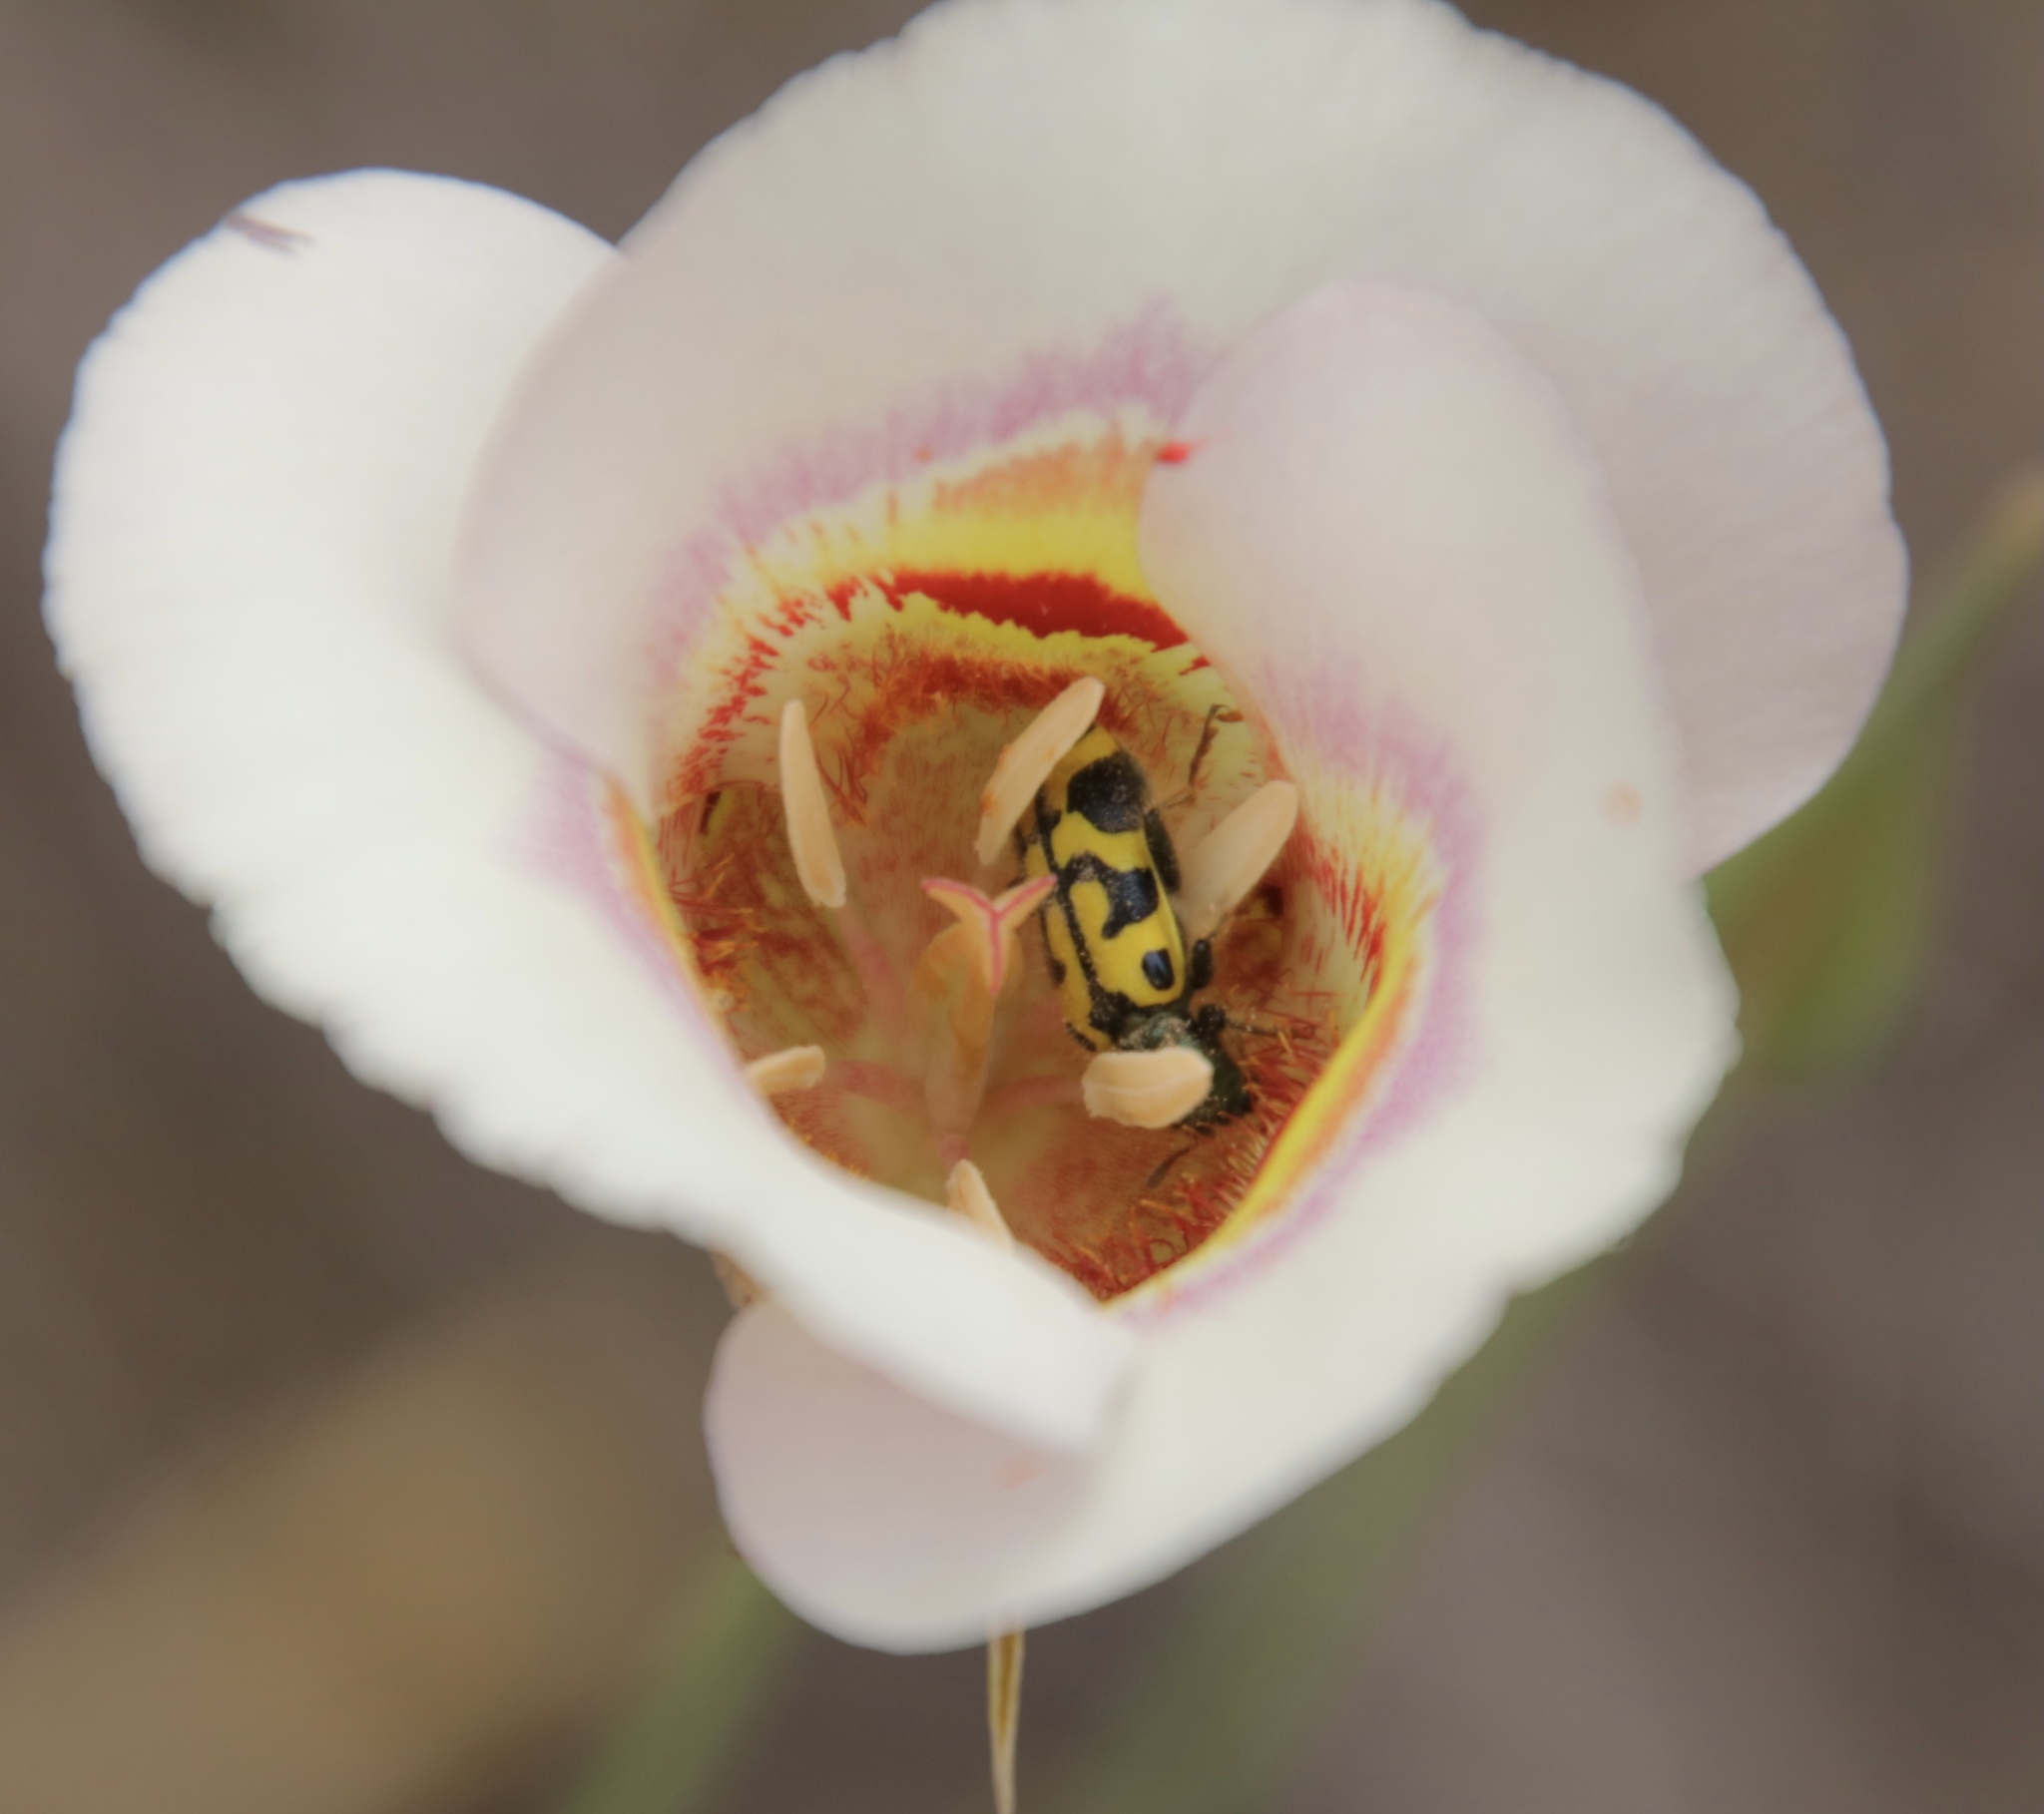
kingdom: Animalia
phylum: Arthropoda
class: Insecta
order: Coleoptera
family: Cleridae
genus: Trichodes
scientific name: Trichodes ornatus
